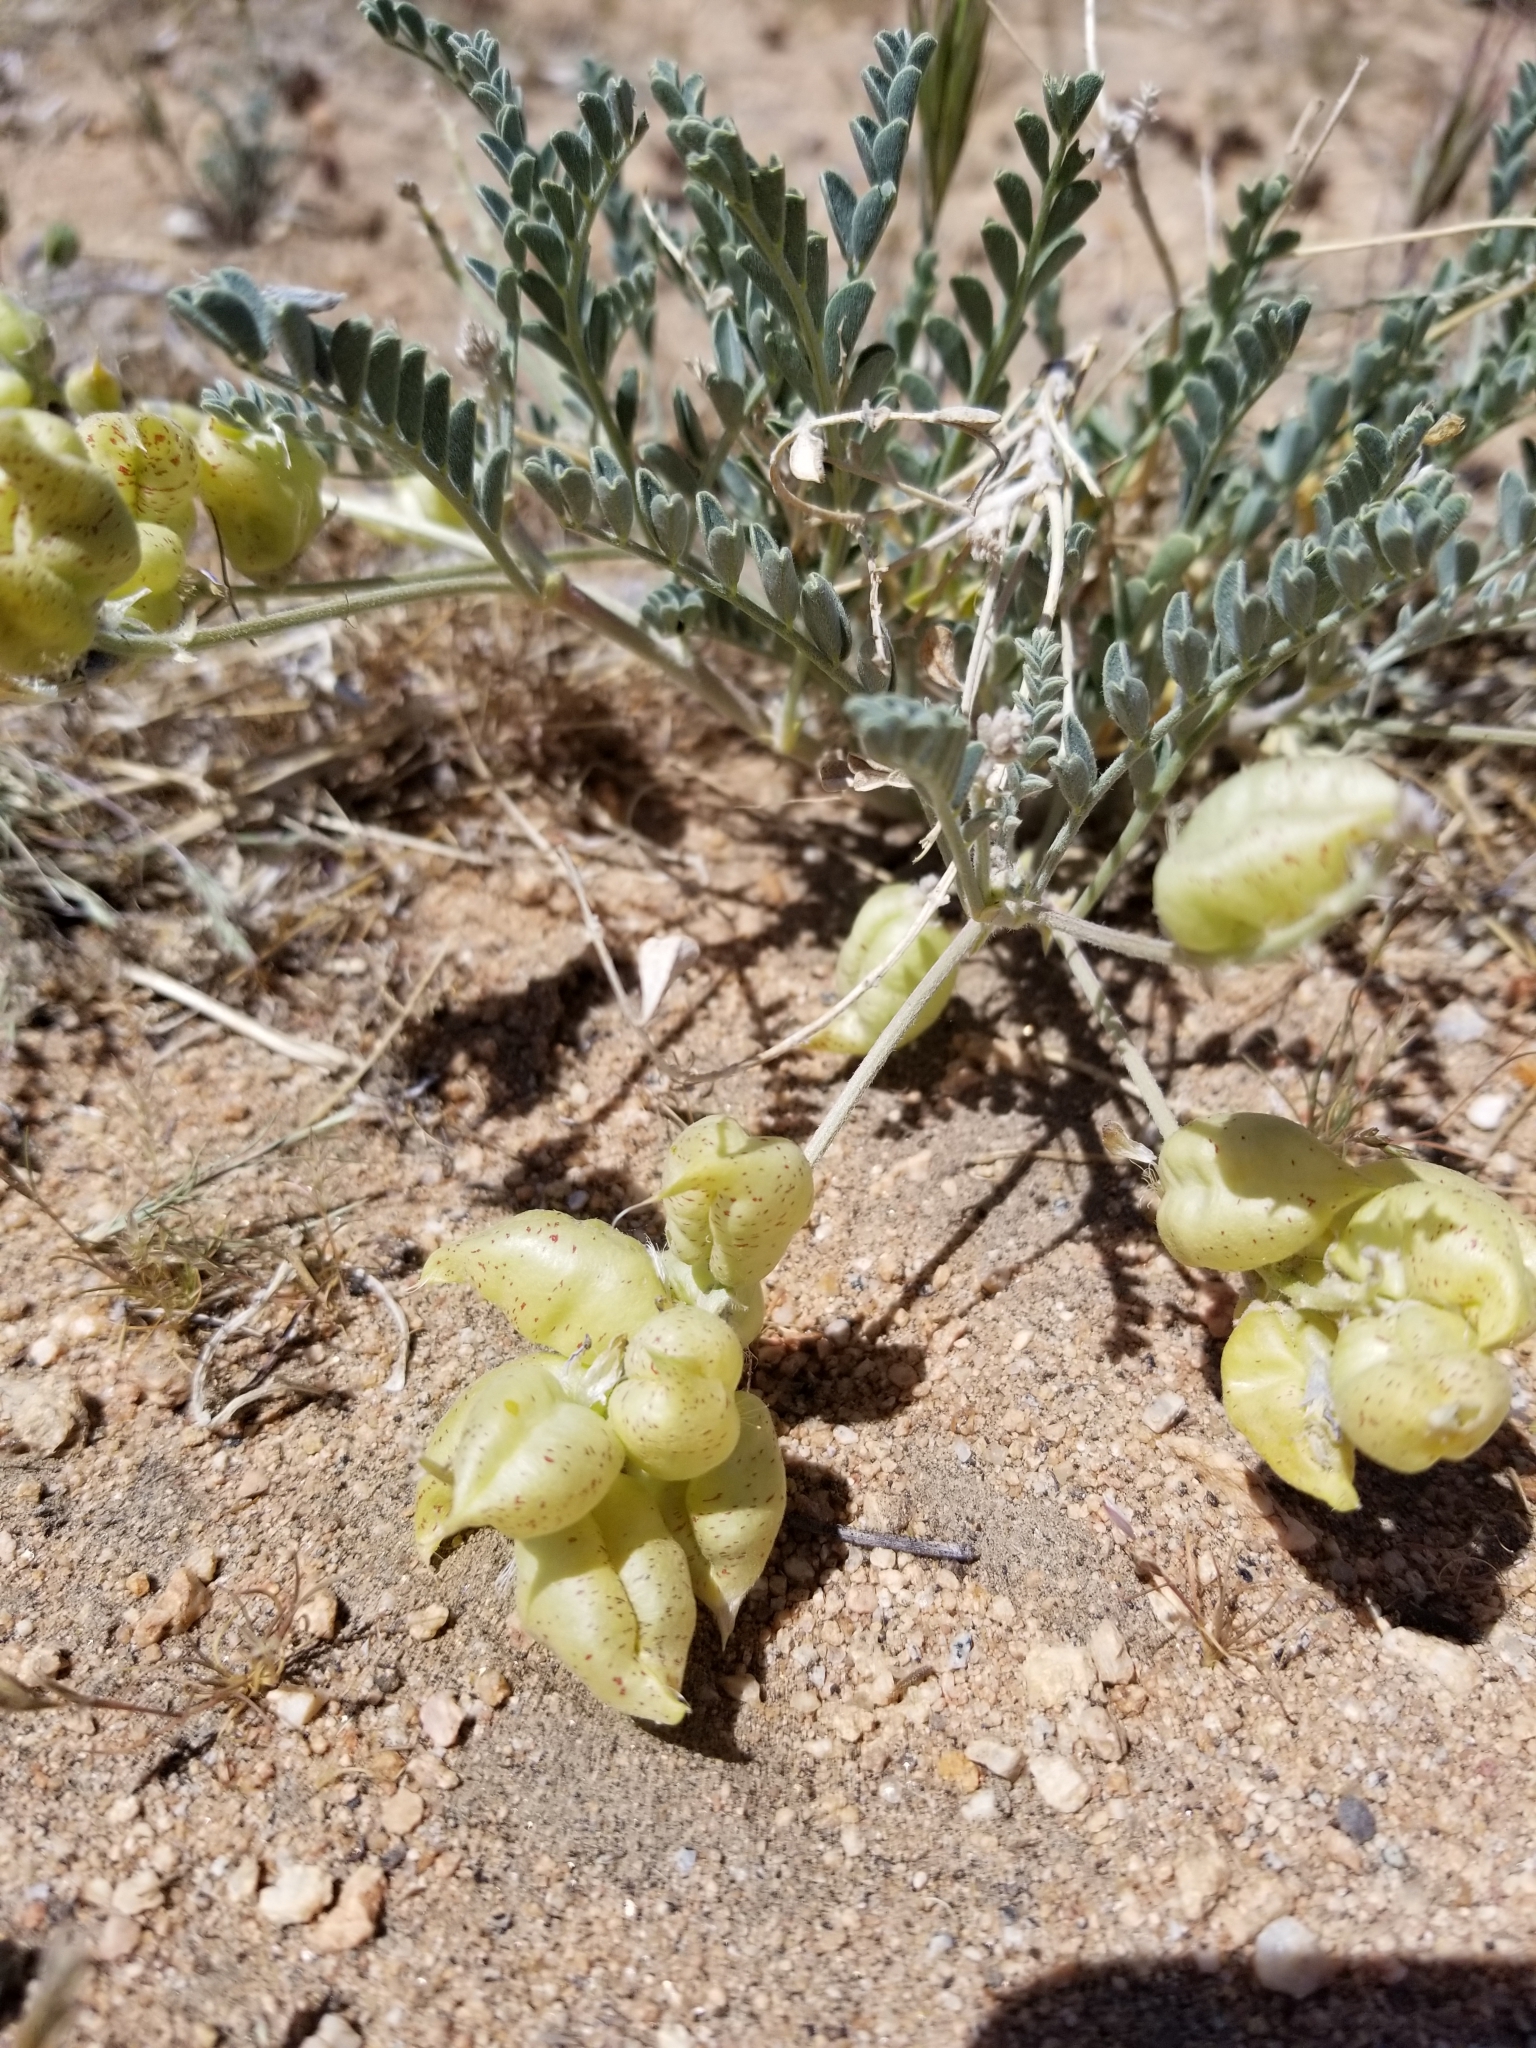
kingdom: Plantae
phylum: Tracheophyta
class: Magnoliopsida
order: Fabales
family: Fabaceae
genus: Astragalus
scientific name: Astragalus lentiginosus
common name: Freckled milkvetch
